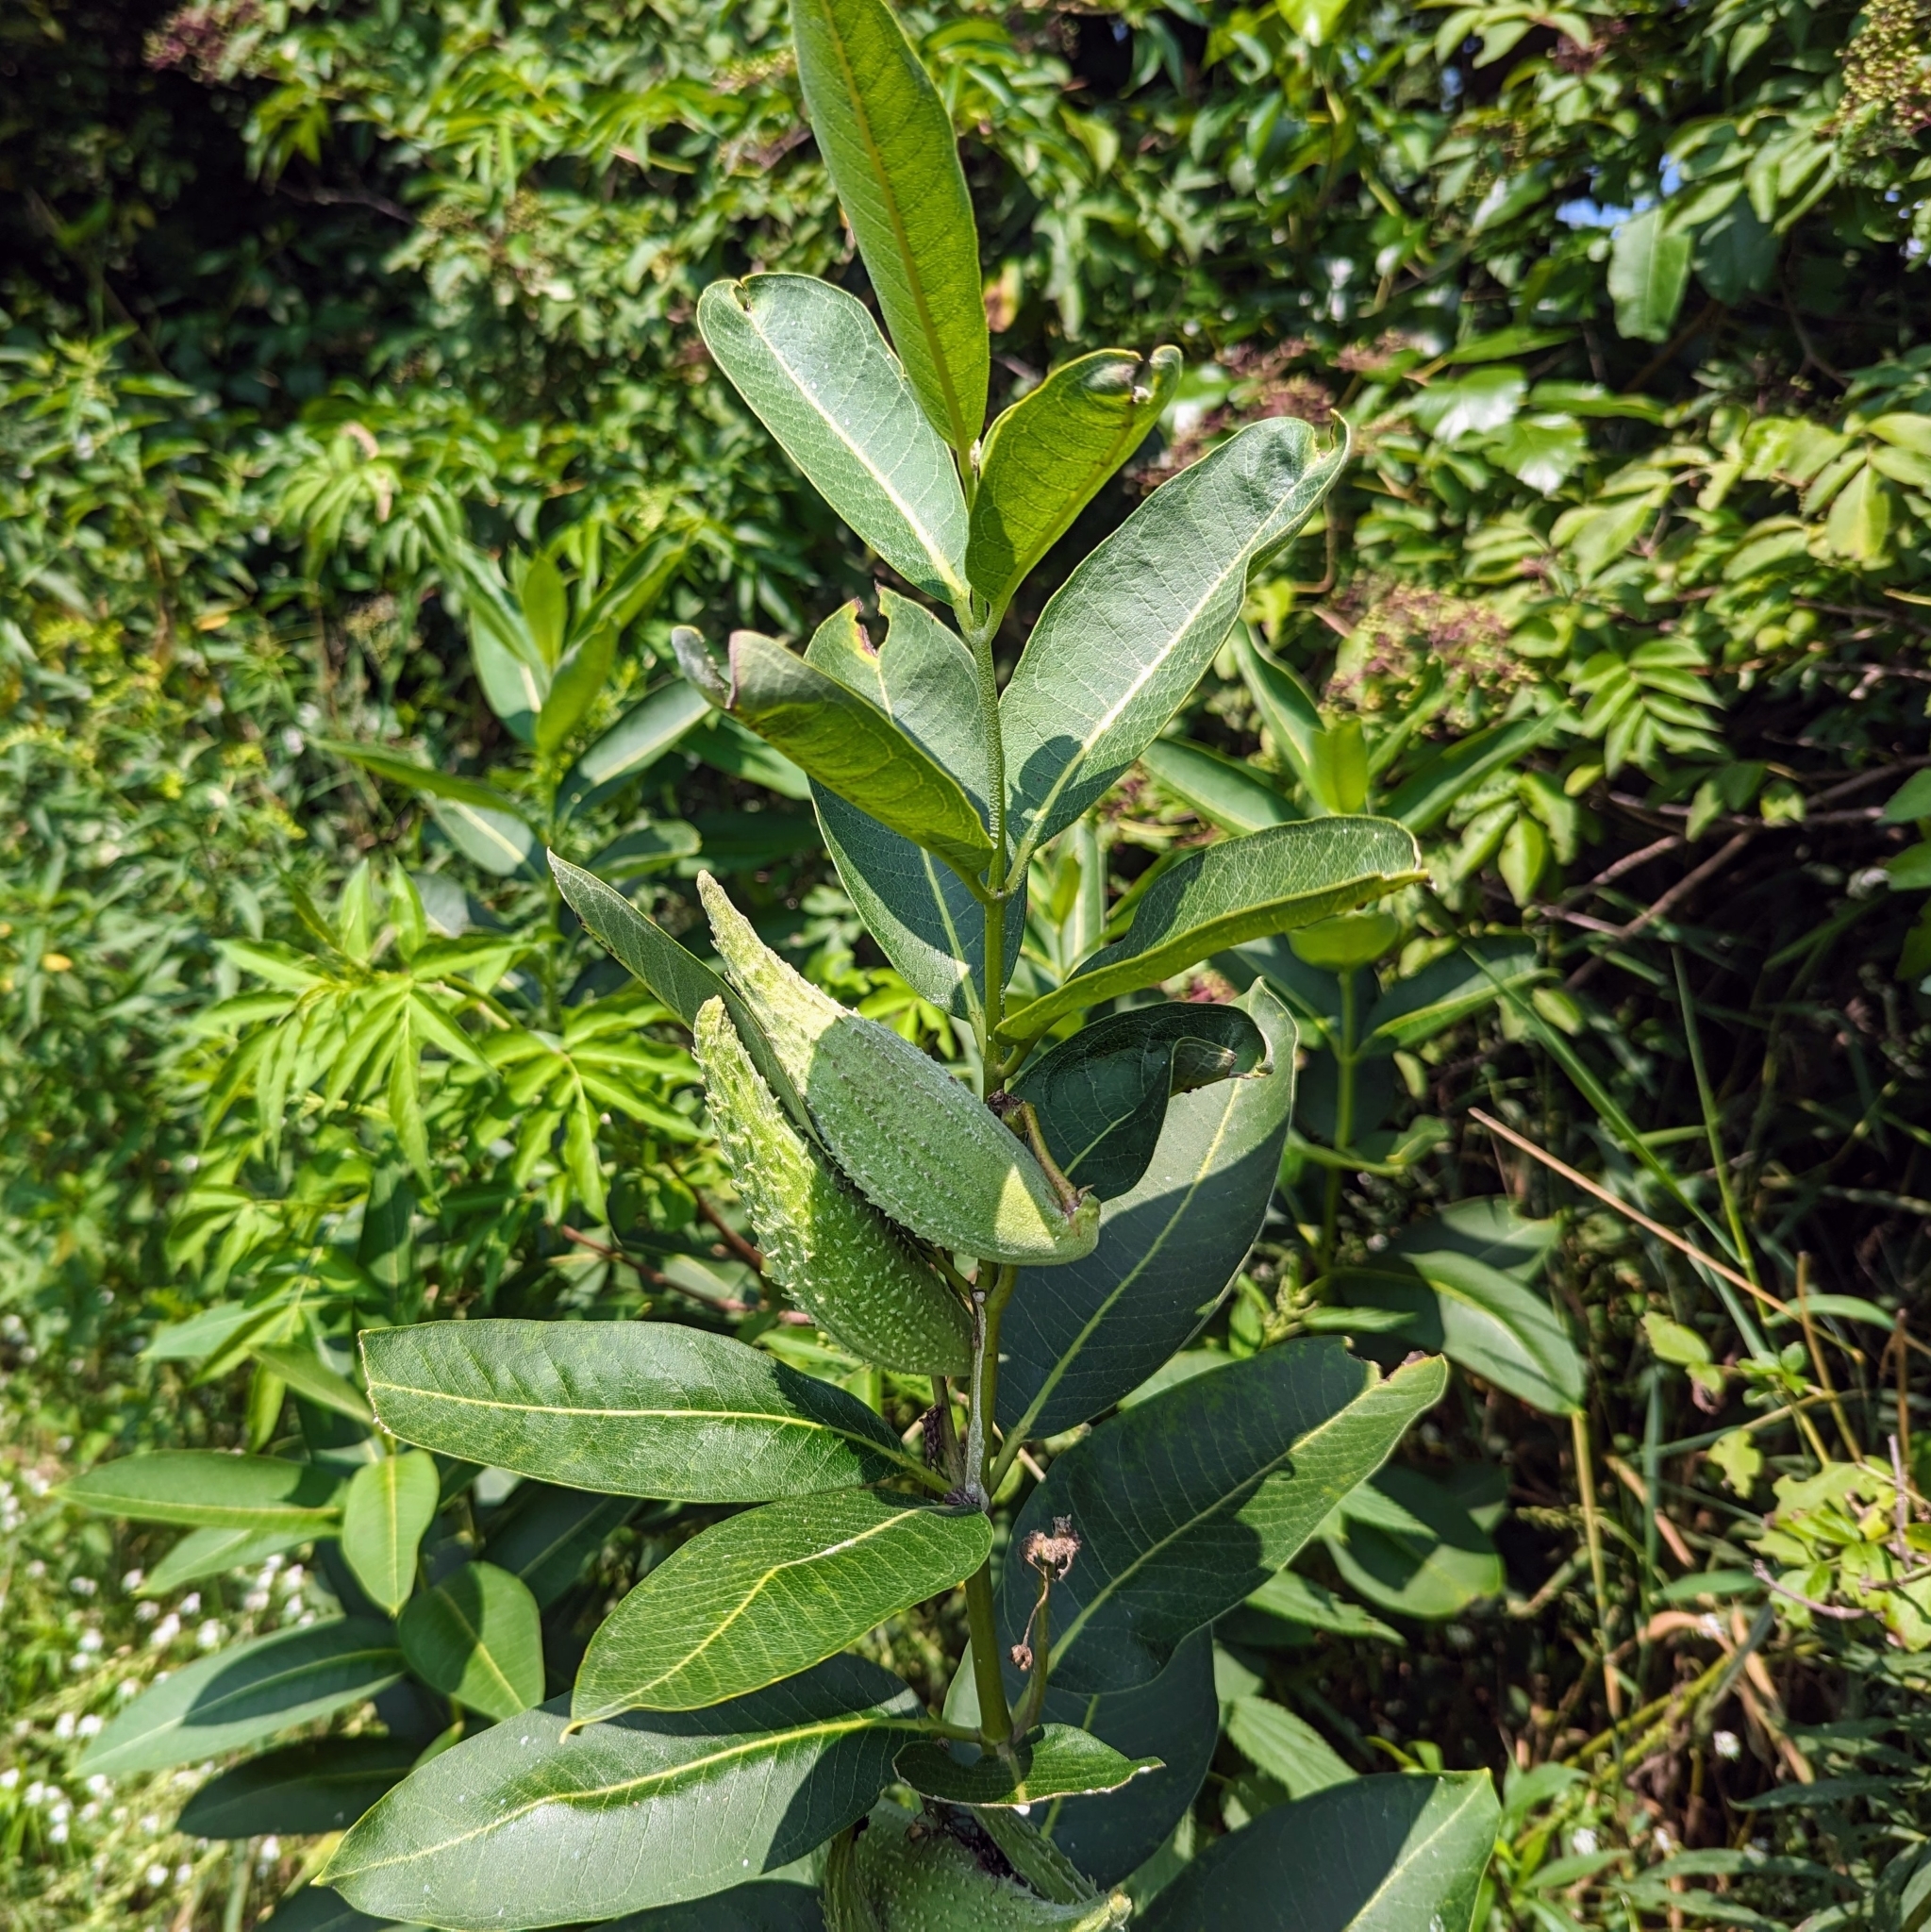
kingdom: Plantae
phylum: Tracheophyta
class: Magnoliopsida
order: Gentianales
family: Apocynaceae
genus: Asclepias
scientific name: Asclepias syriaca
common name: Common milkweed
